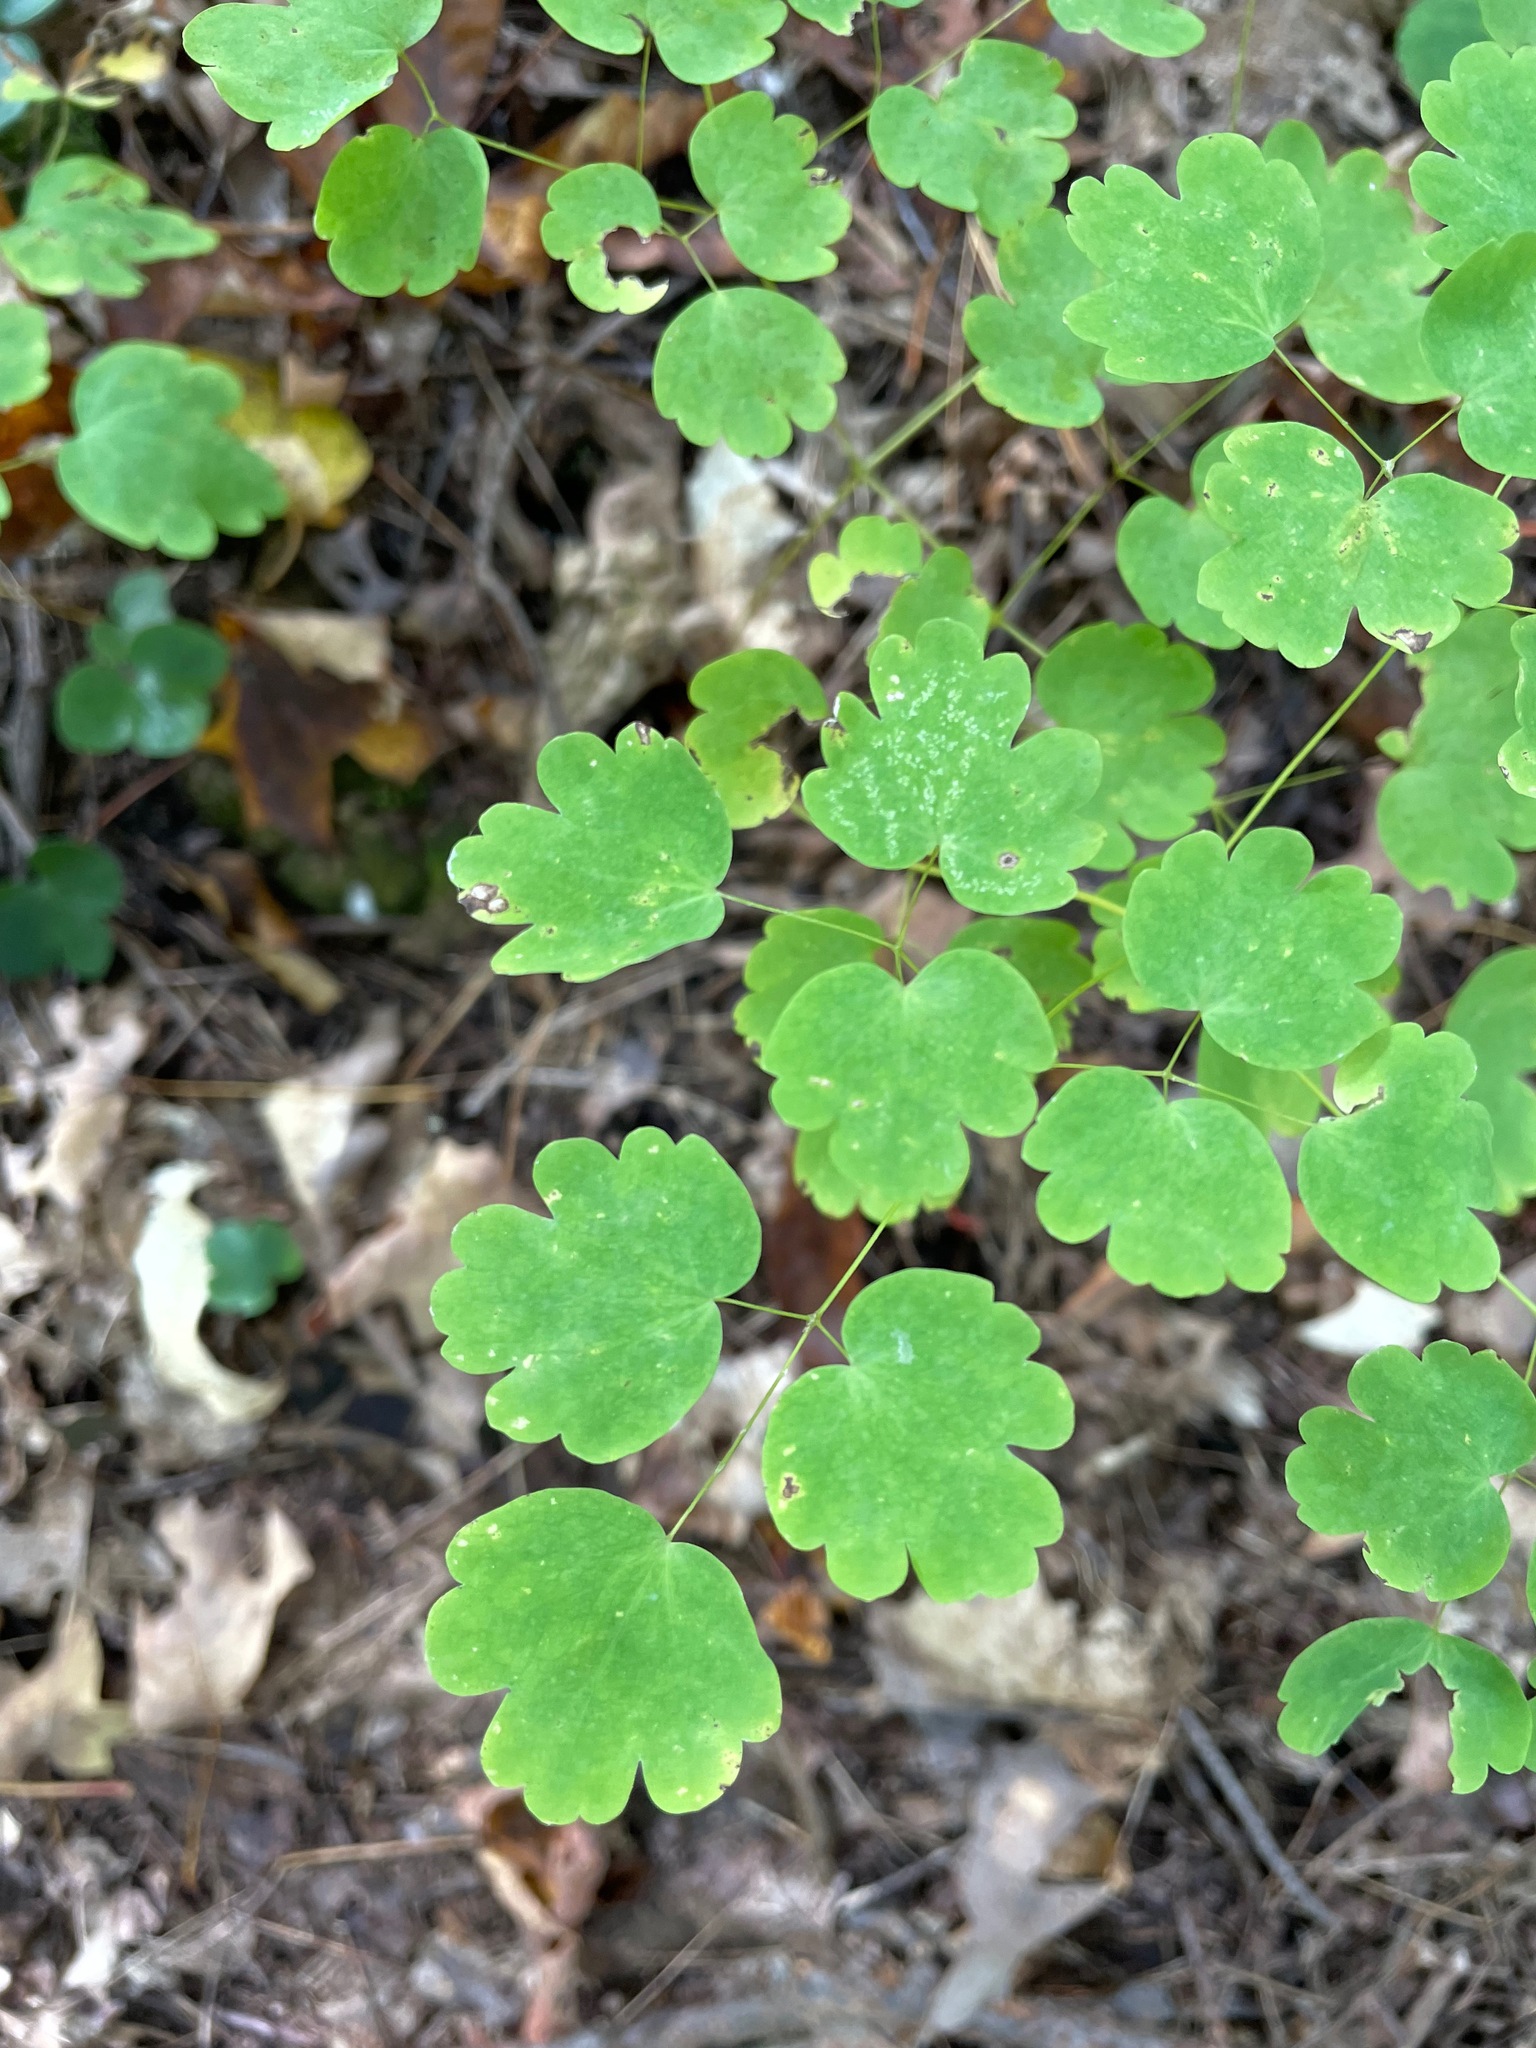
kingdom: Plantae
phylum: Tracheophyta
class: Magnoliopsida
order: Ranunculales
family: Ranunculaceae
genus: Thalictrum
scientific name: Thalictrum dioicum
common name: Early meadow-rue
